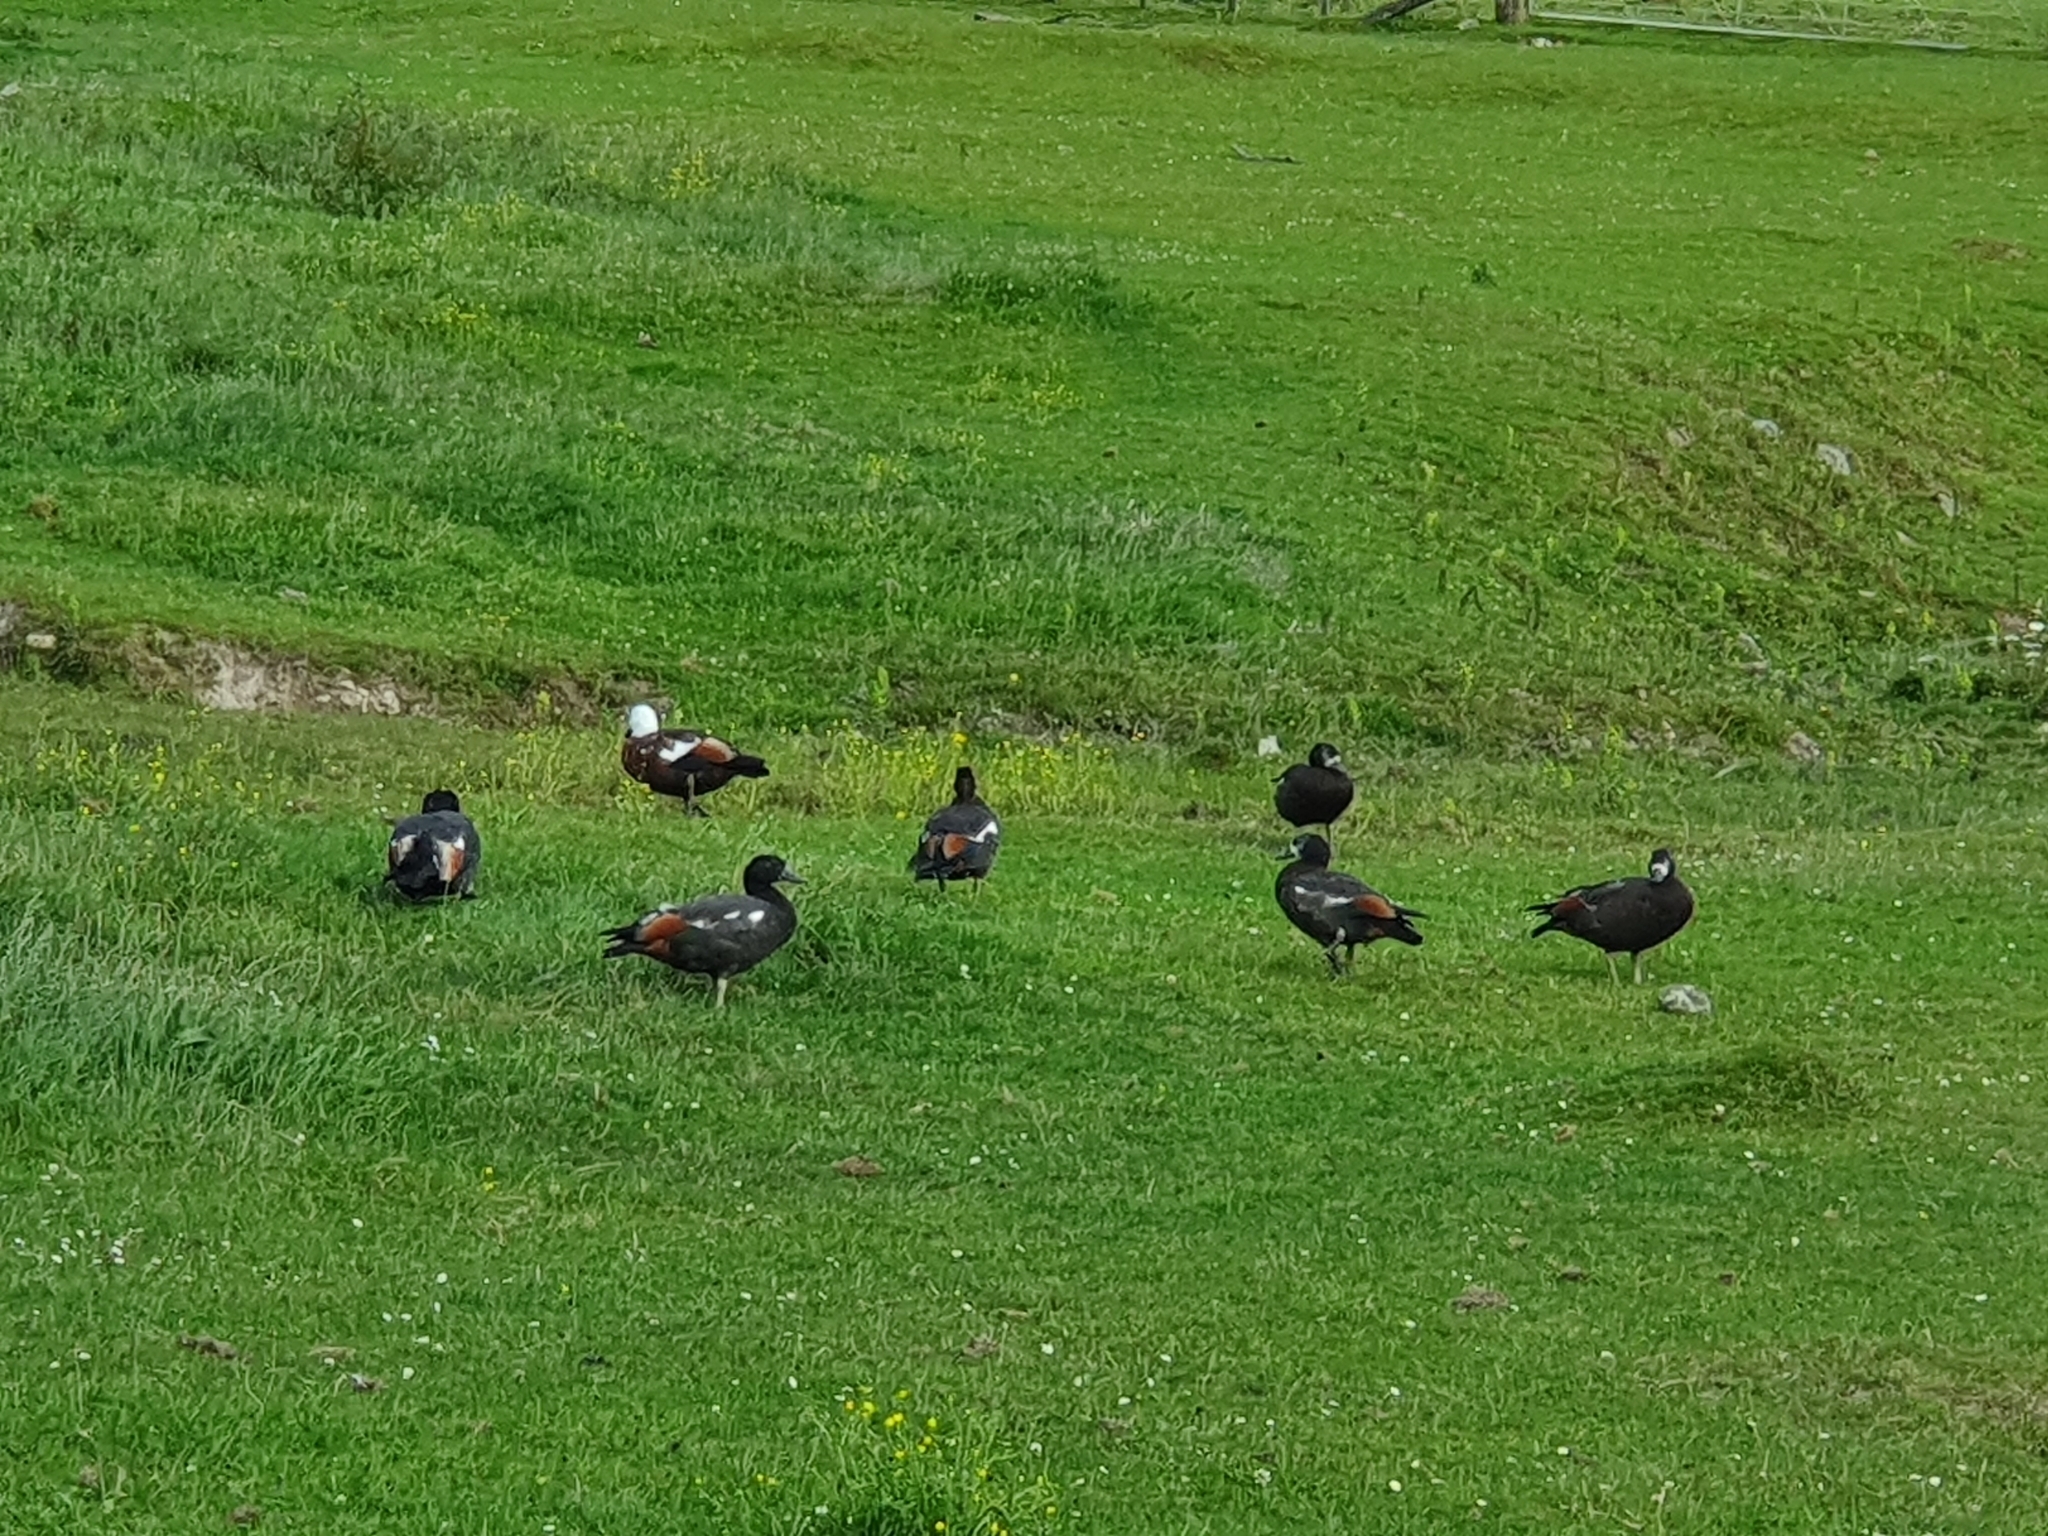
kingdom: Animalia
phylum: Chordata
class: Aves
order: Anseriformes
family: Anatidae
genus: Tadorna
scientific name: Tadorna variegata
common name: Paradise shelduck
